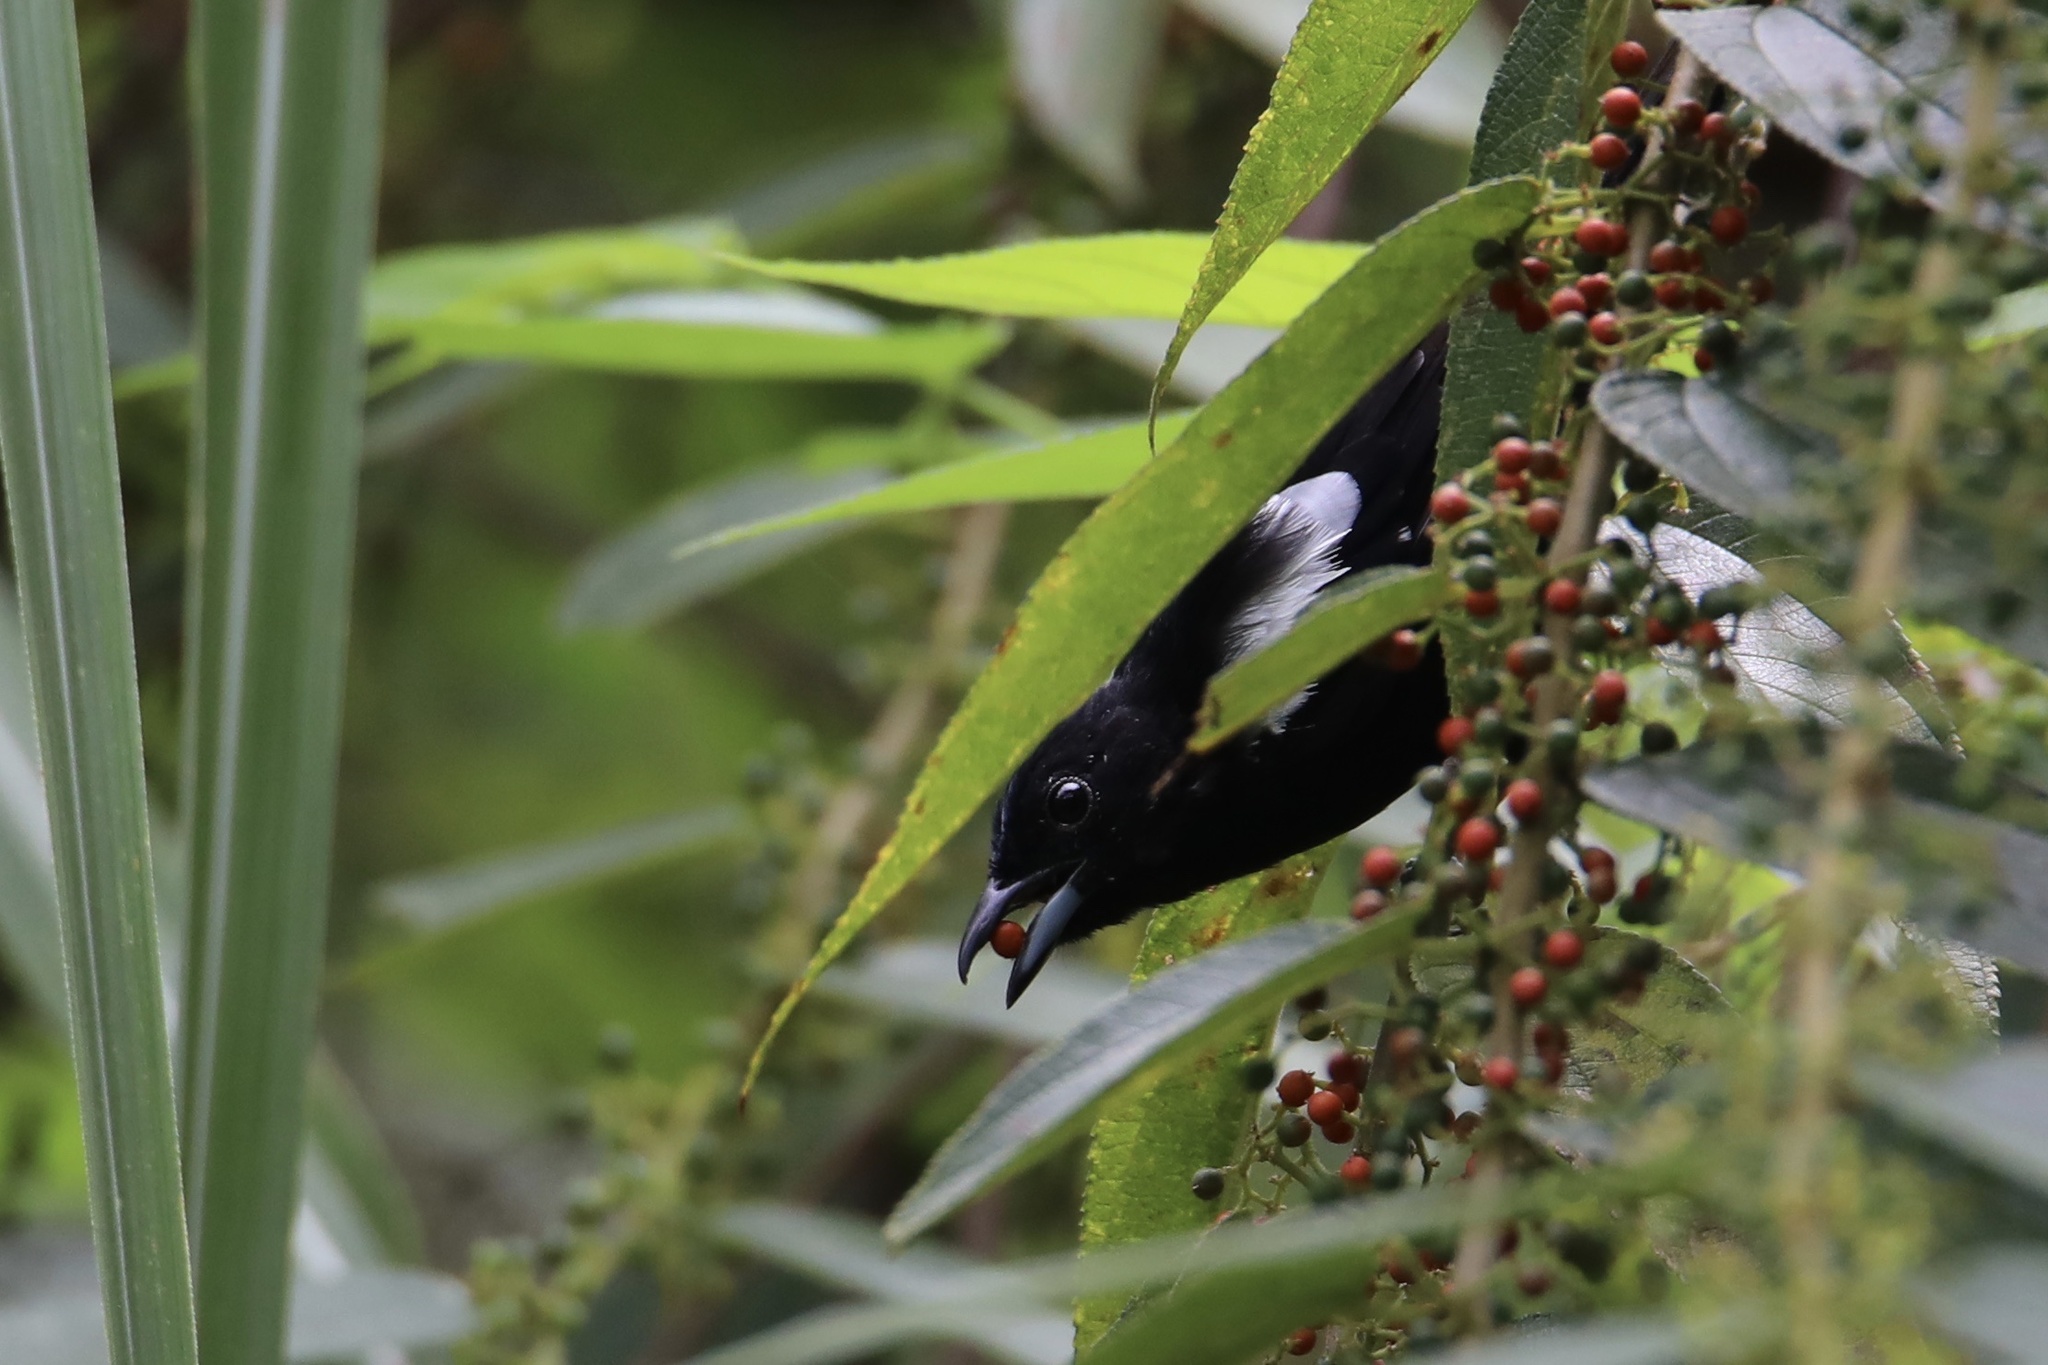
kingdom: Animalia
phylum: Chordata
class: Aves
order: Passeriformes
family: Thraupidae
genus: Loriotus
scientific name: Loriotus luctuosus
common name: White-shouldered tanager
